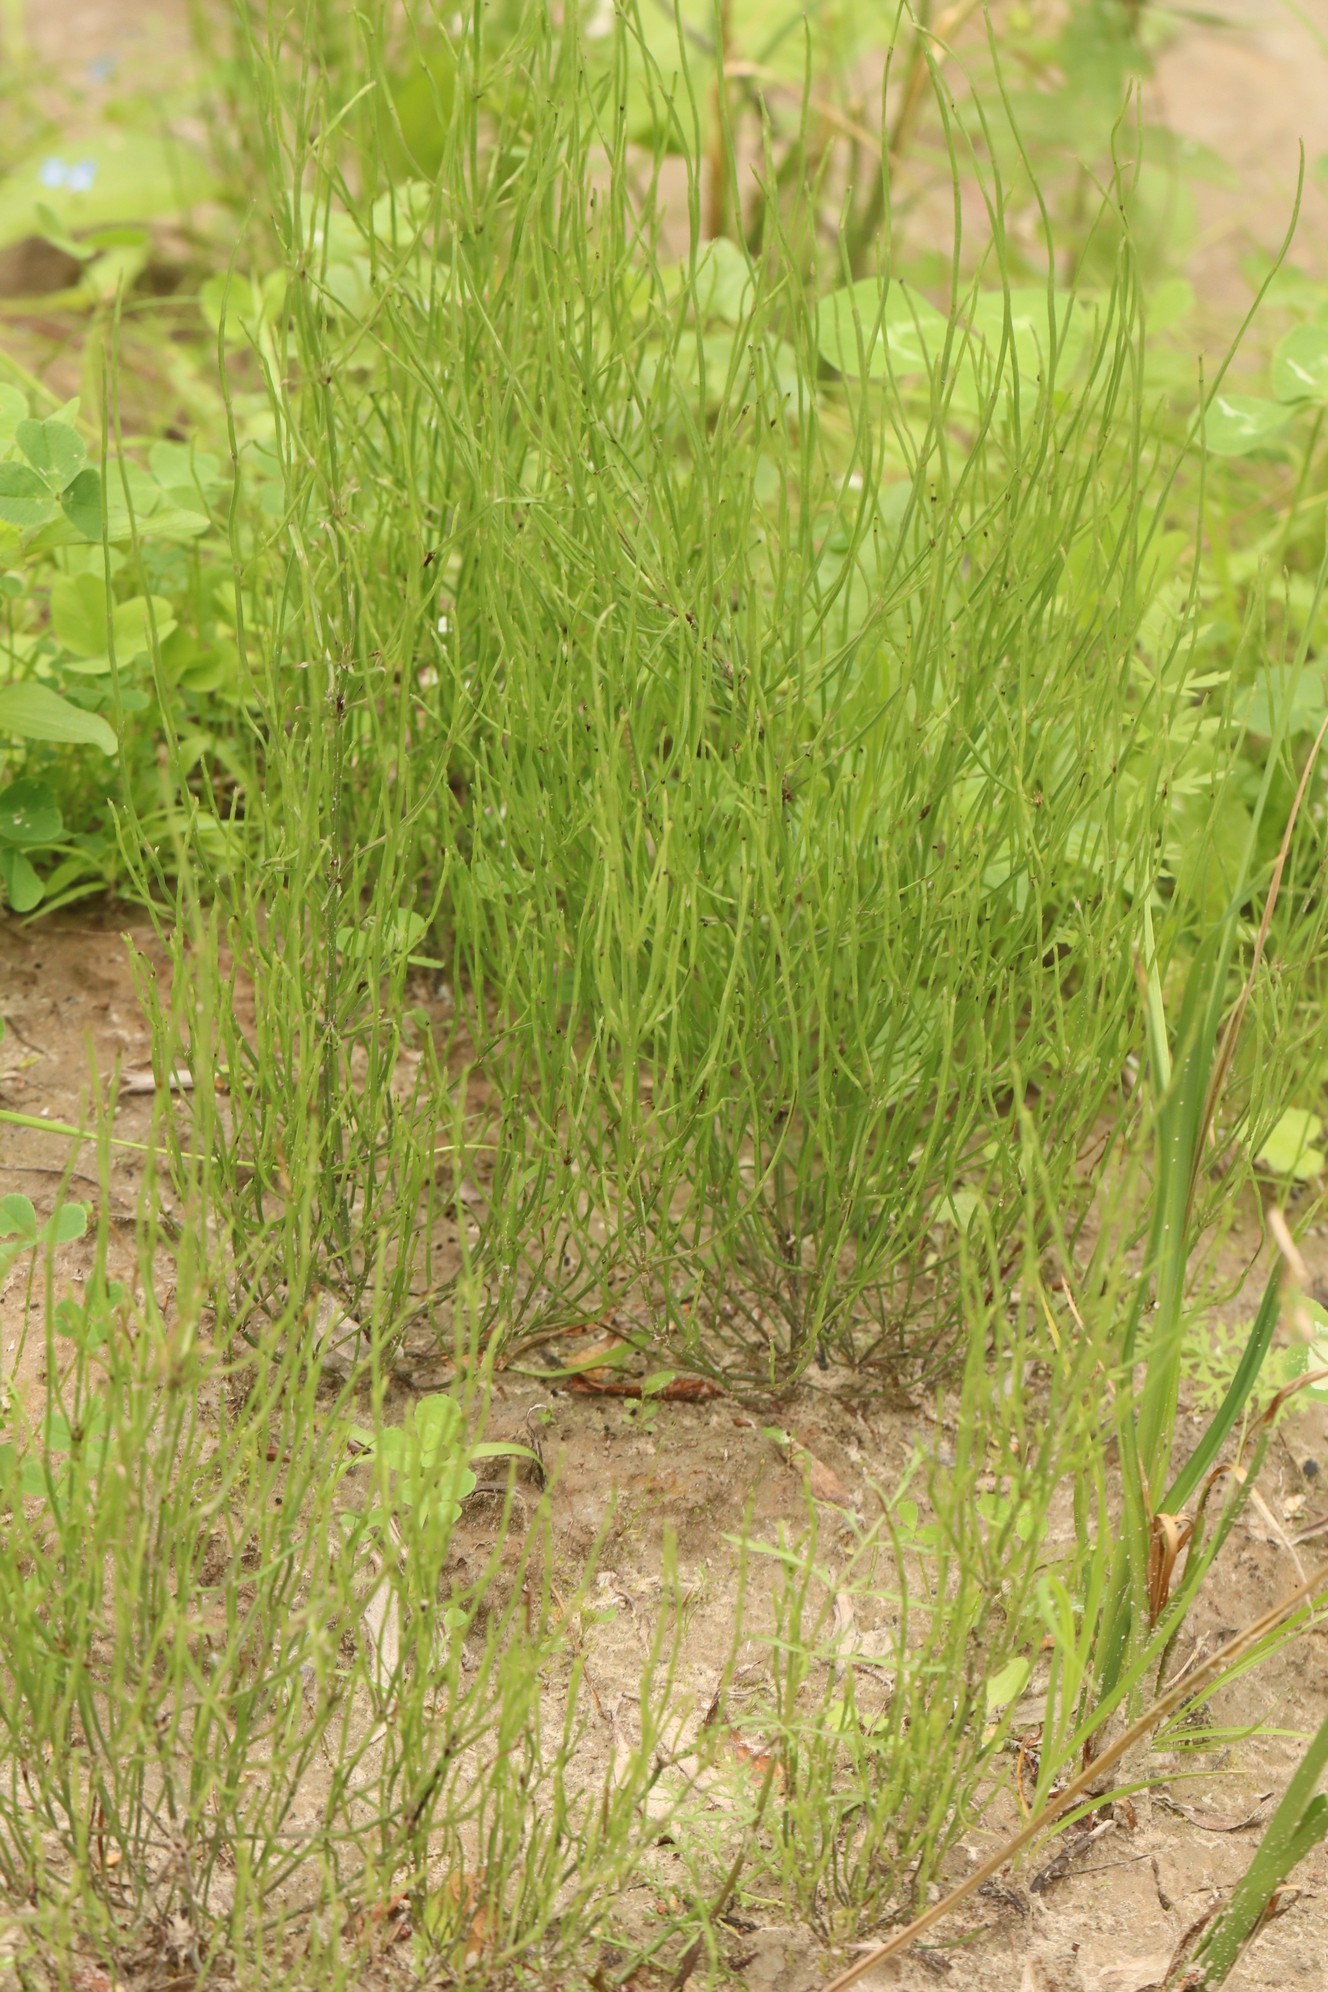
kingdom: Plantae
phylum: Tracheophyta
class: Polypodiopsida
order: Equisetales
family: Equisetaceae
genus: Equisetum
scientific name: Equisetum arvense
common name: Field horsetail
